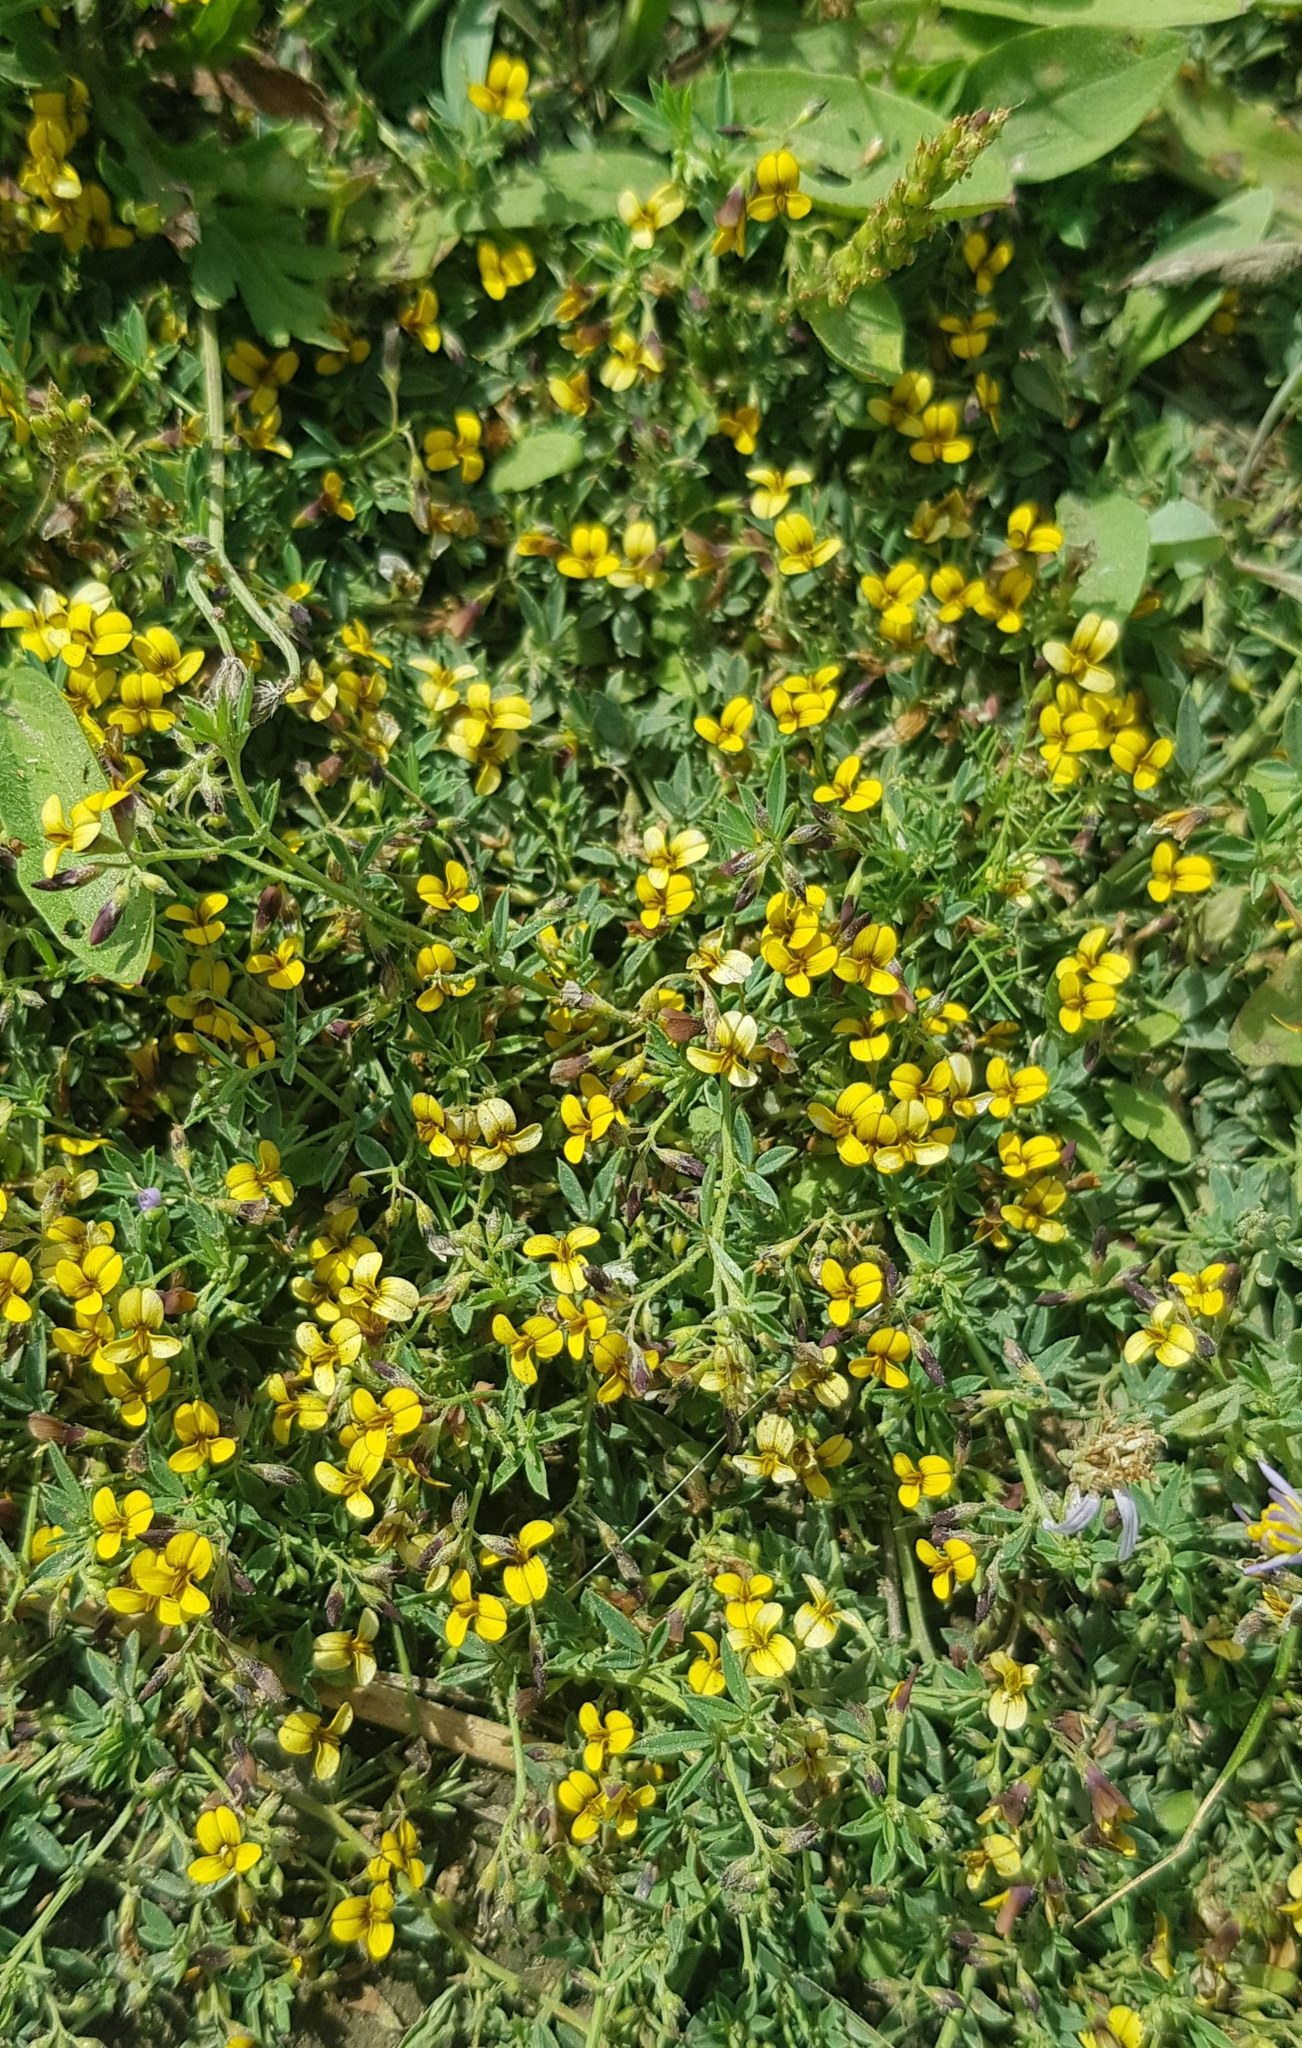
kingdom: Plantae
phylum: Tracheophyta
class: Magnoliopsida
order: Fabales
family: Fabaceae
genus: Medicago
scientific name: Medicago ruthenica
